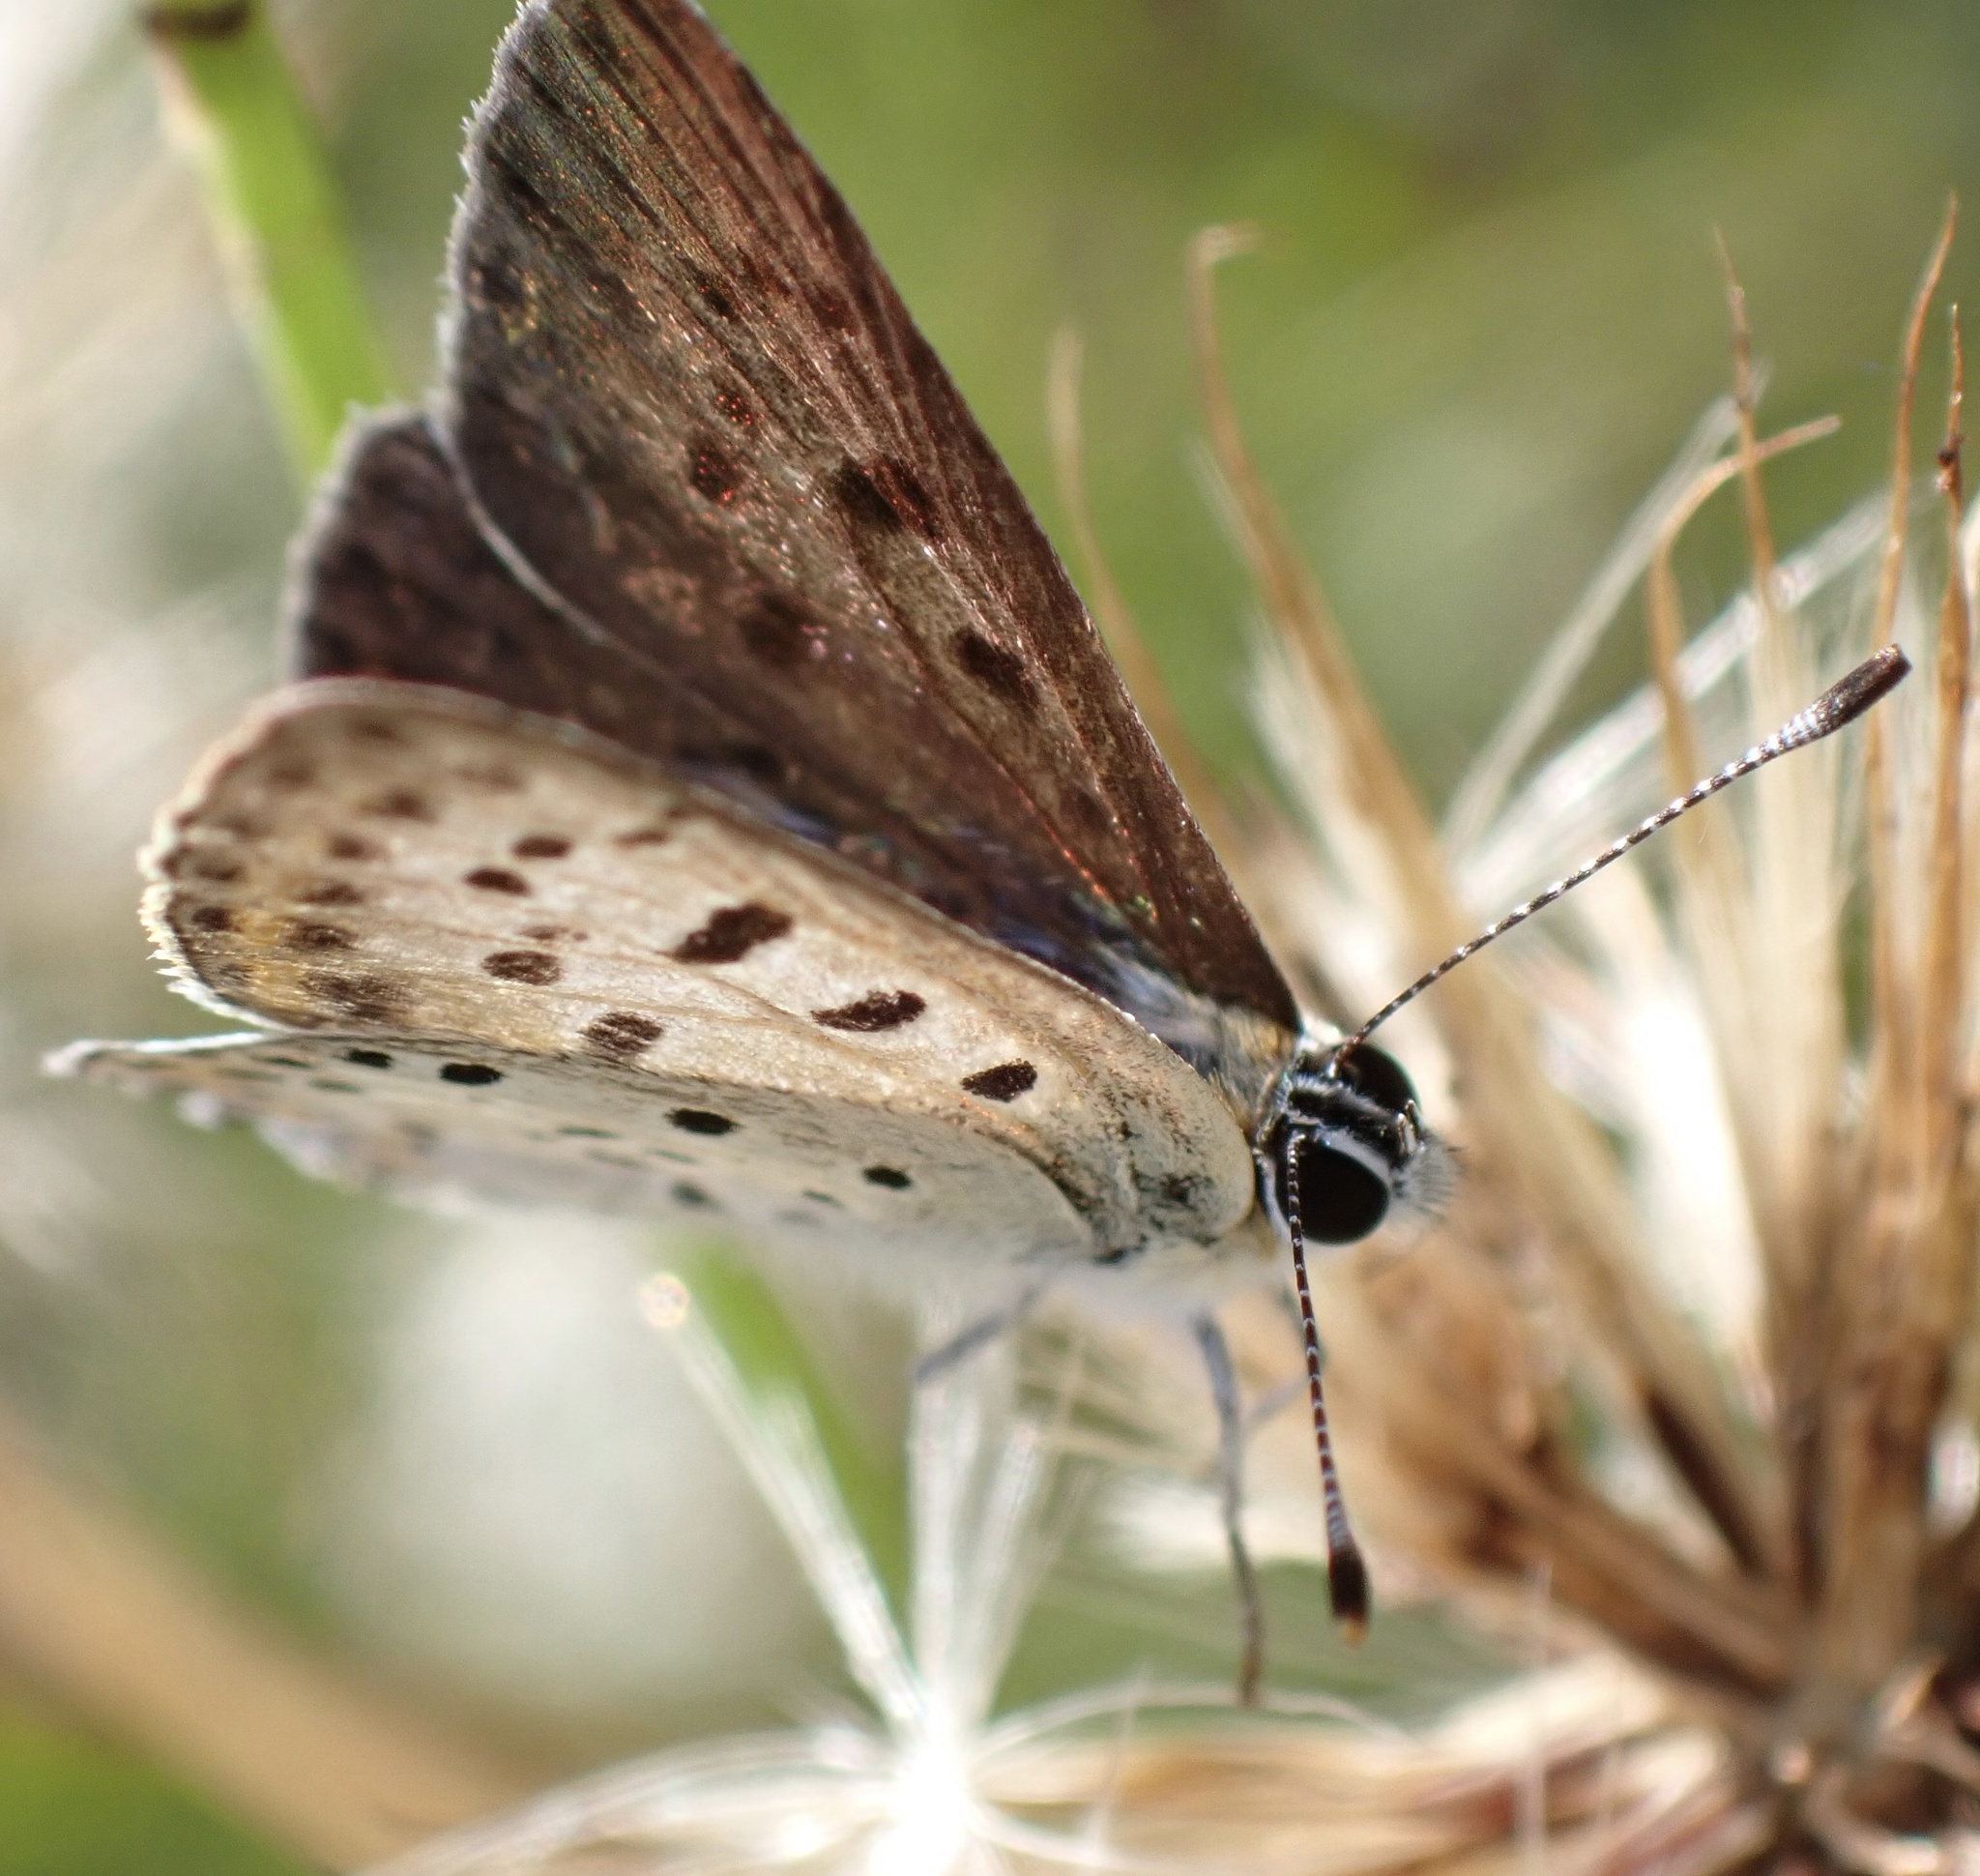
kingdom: Animalia
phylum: Arthropoda
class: Insecta
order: Lepidoptera
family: Lycaenidae
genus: Loweia
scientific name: Loweia tityrus
